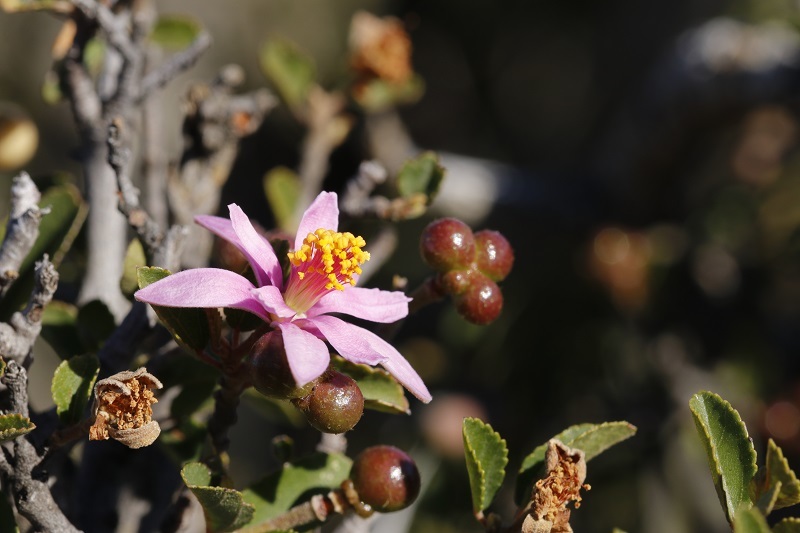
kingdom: Plantae
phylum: Tracheophyta
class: Magnoliopsida
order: Malvales
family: Malvaceae
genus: Grewia
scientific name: Grewia robusta
